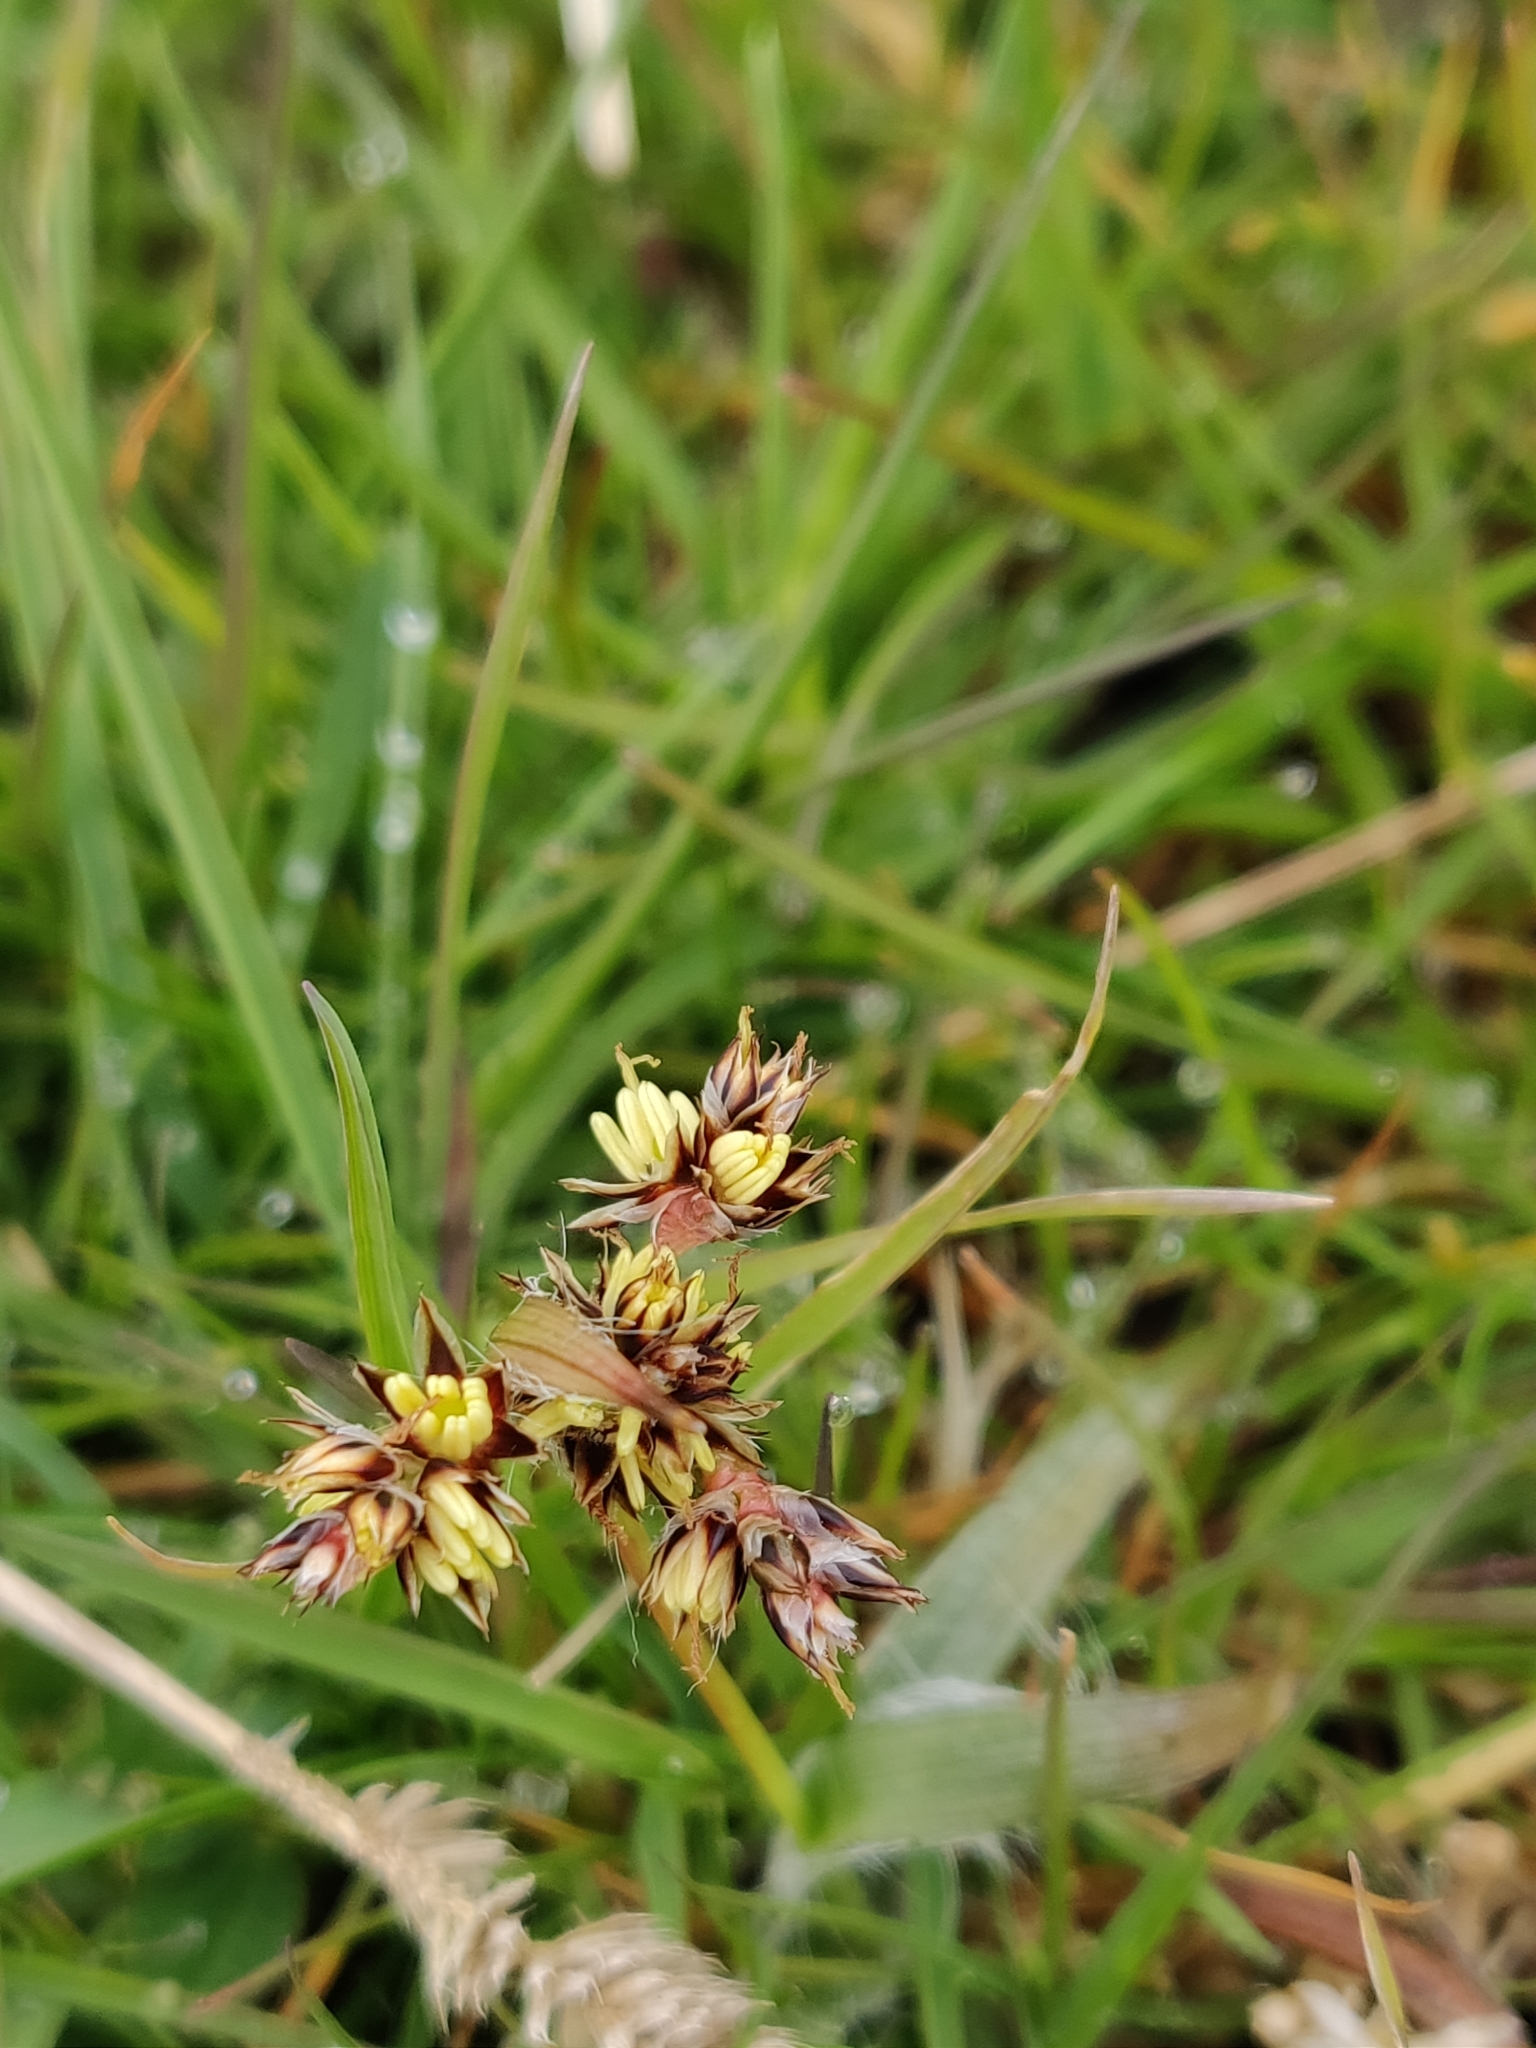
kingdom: Plantae
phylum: Tracheophyta
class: Liliopsida
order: Poales
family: Juncaceae
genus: Luzula
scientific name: Luzula campestris
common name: Field wood-rush
